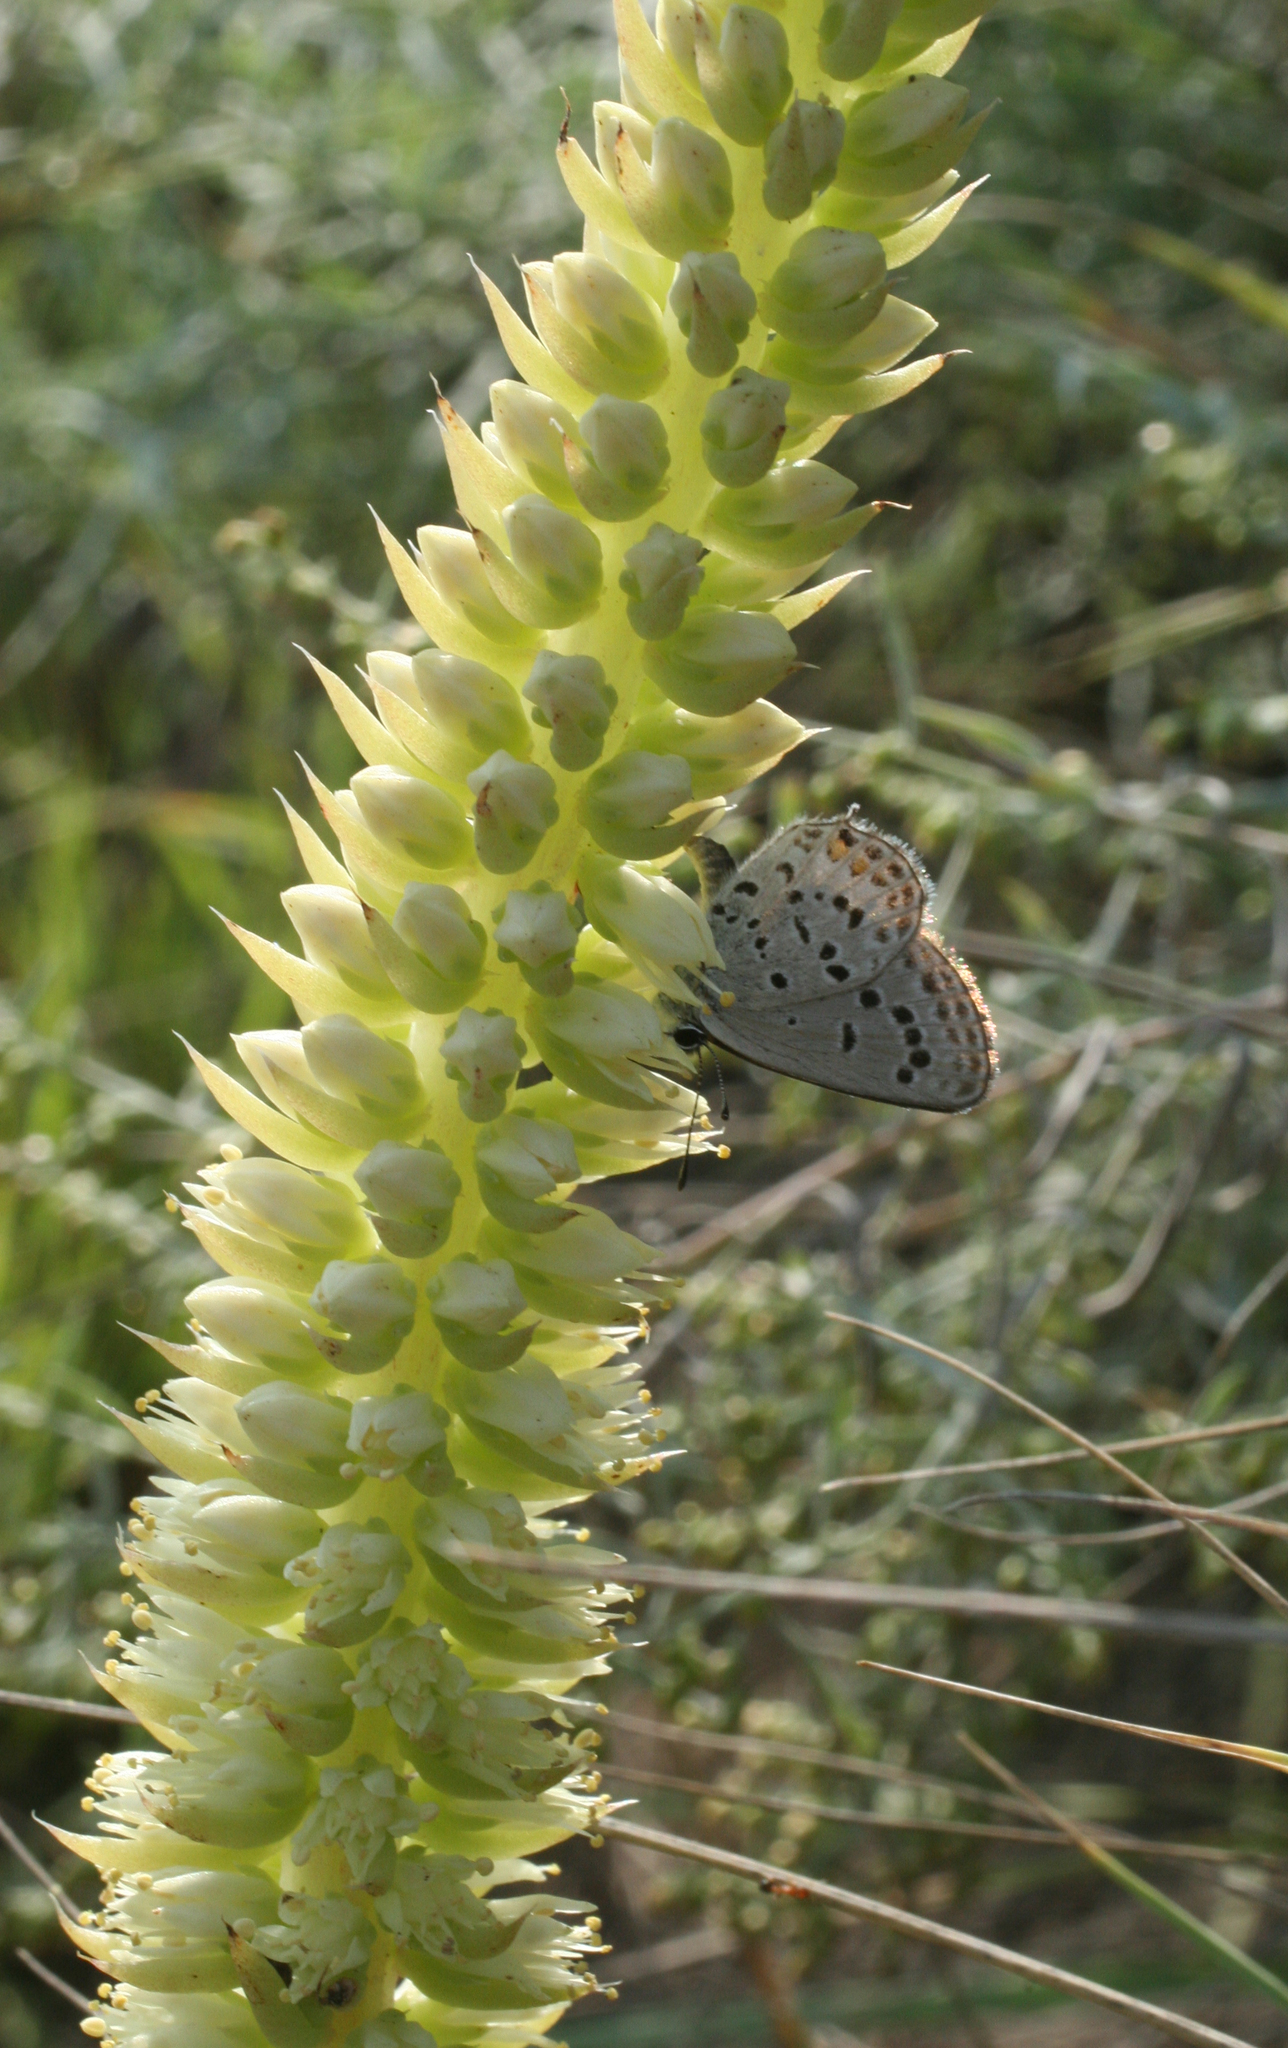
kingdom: Animalia
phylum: Arthropoda
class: Insecta
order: Lepidoptera
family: Lycaenidae
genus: Tongeia
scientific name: Tongeia fischeri
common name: Fischer's blue
